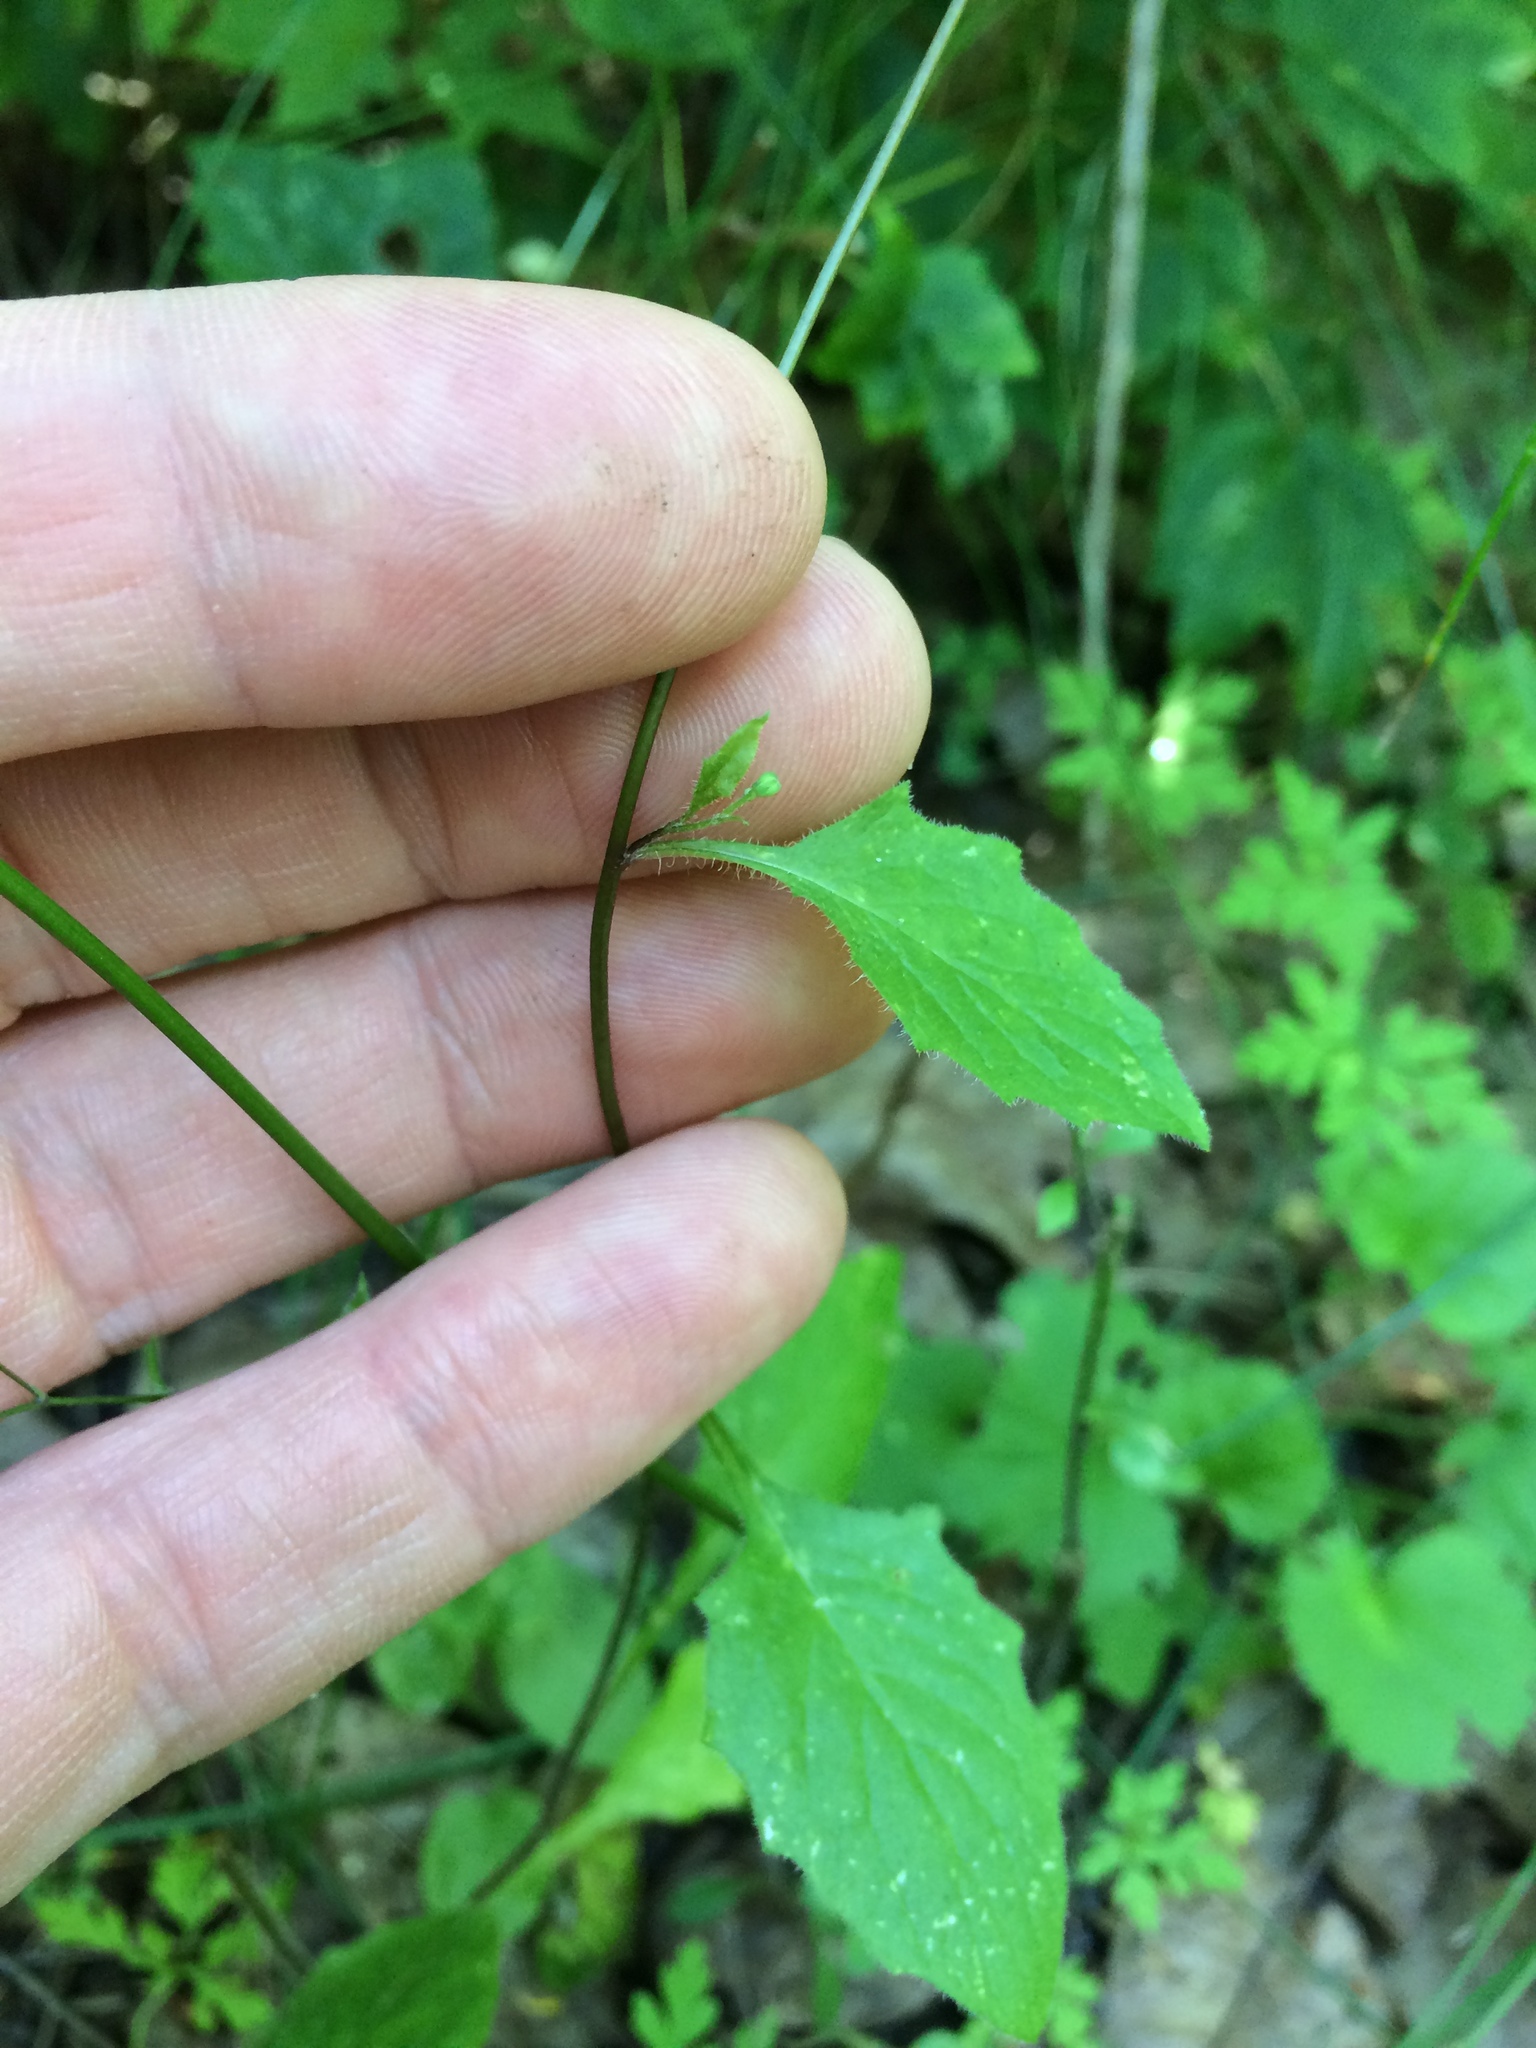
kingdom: Plantae
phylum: Tracheophyta
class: Magnoliopsida
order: Asterales
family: Asteraceae
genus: Lapsana
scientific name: Lapsana communis
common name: Nipplewort
